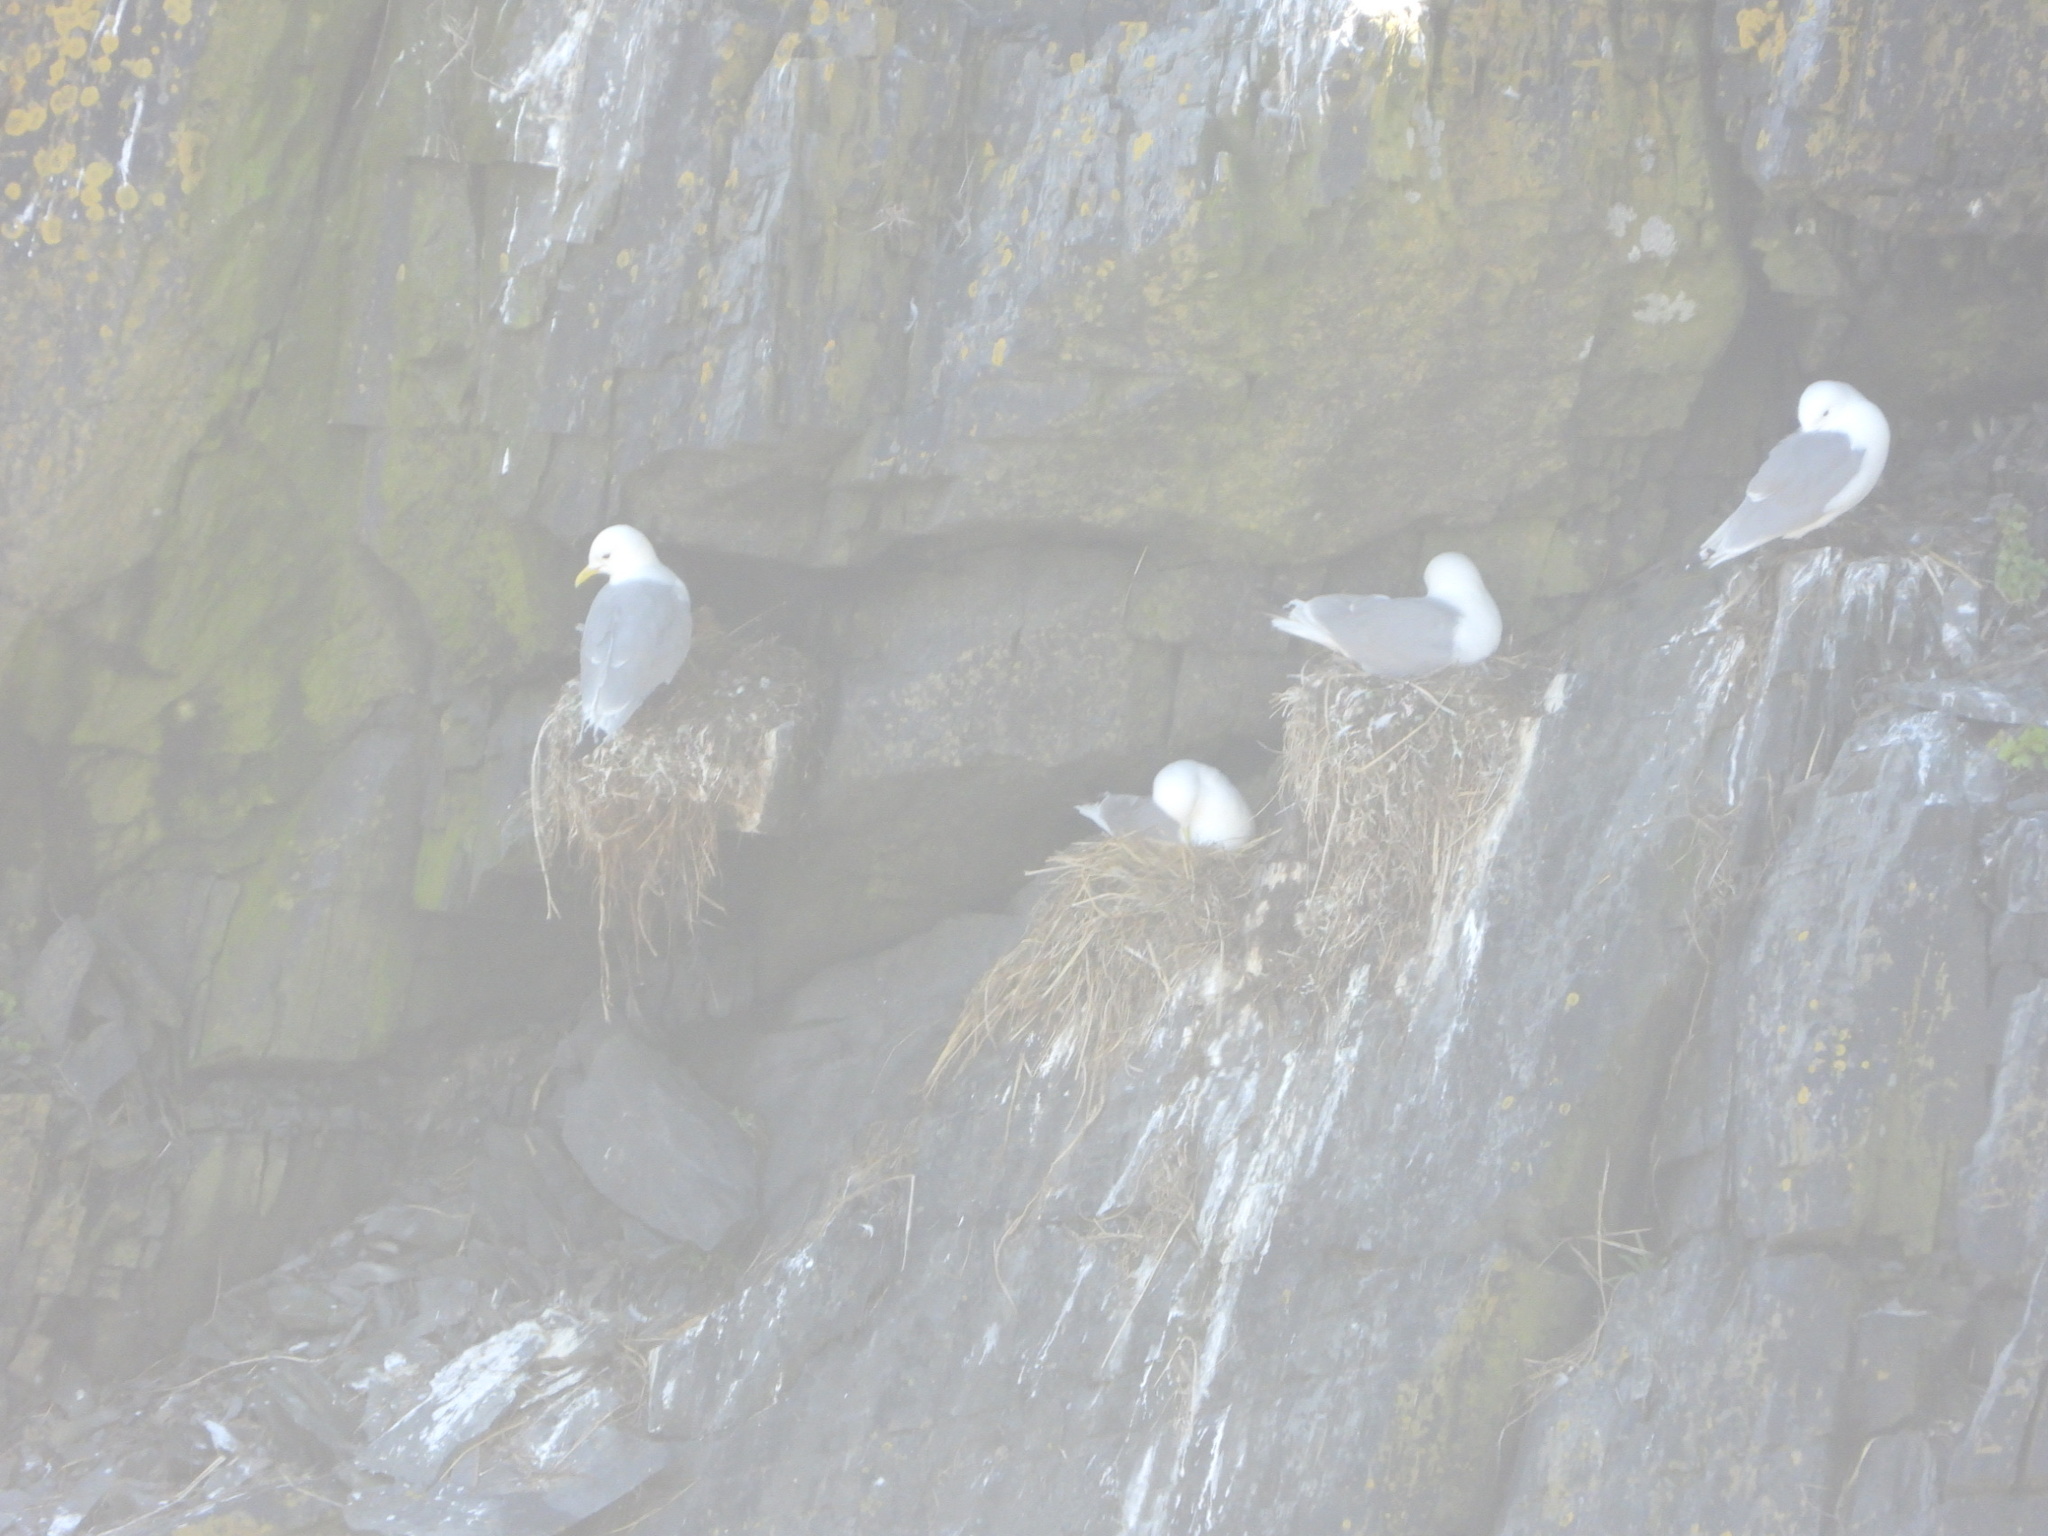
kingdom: Animalia
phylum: Chordata
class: Aves
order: Charadriiformes
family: Laridae
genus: Rissa
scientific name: Rissa tridactyla
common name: Black-legged kittiwake
